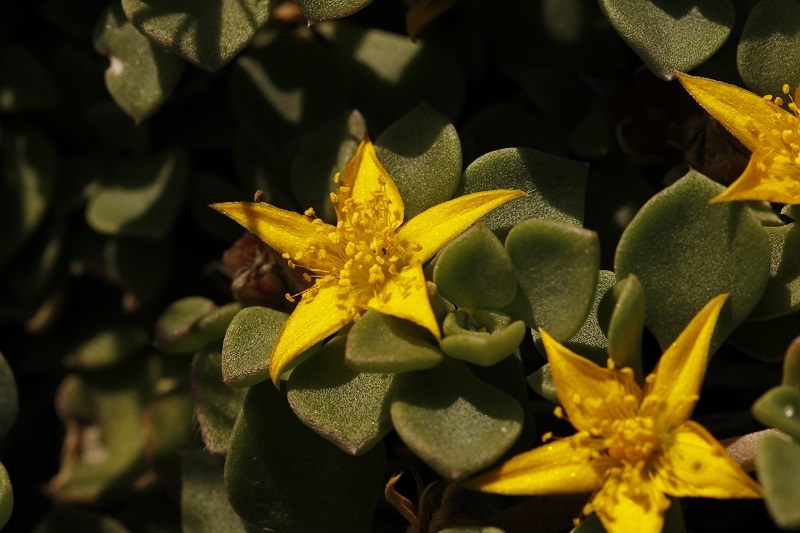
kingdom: Plantae
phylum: Tracheophyta
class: Magnoliopsida
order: Caryophyllales
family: Aizoaceae
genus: Aizoon
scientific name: Aizoon rigidum
